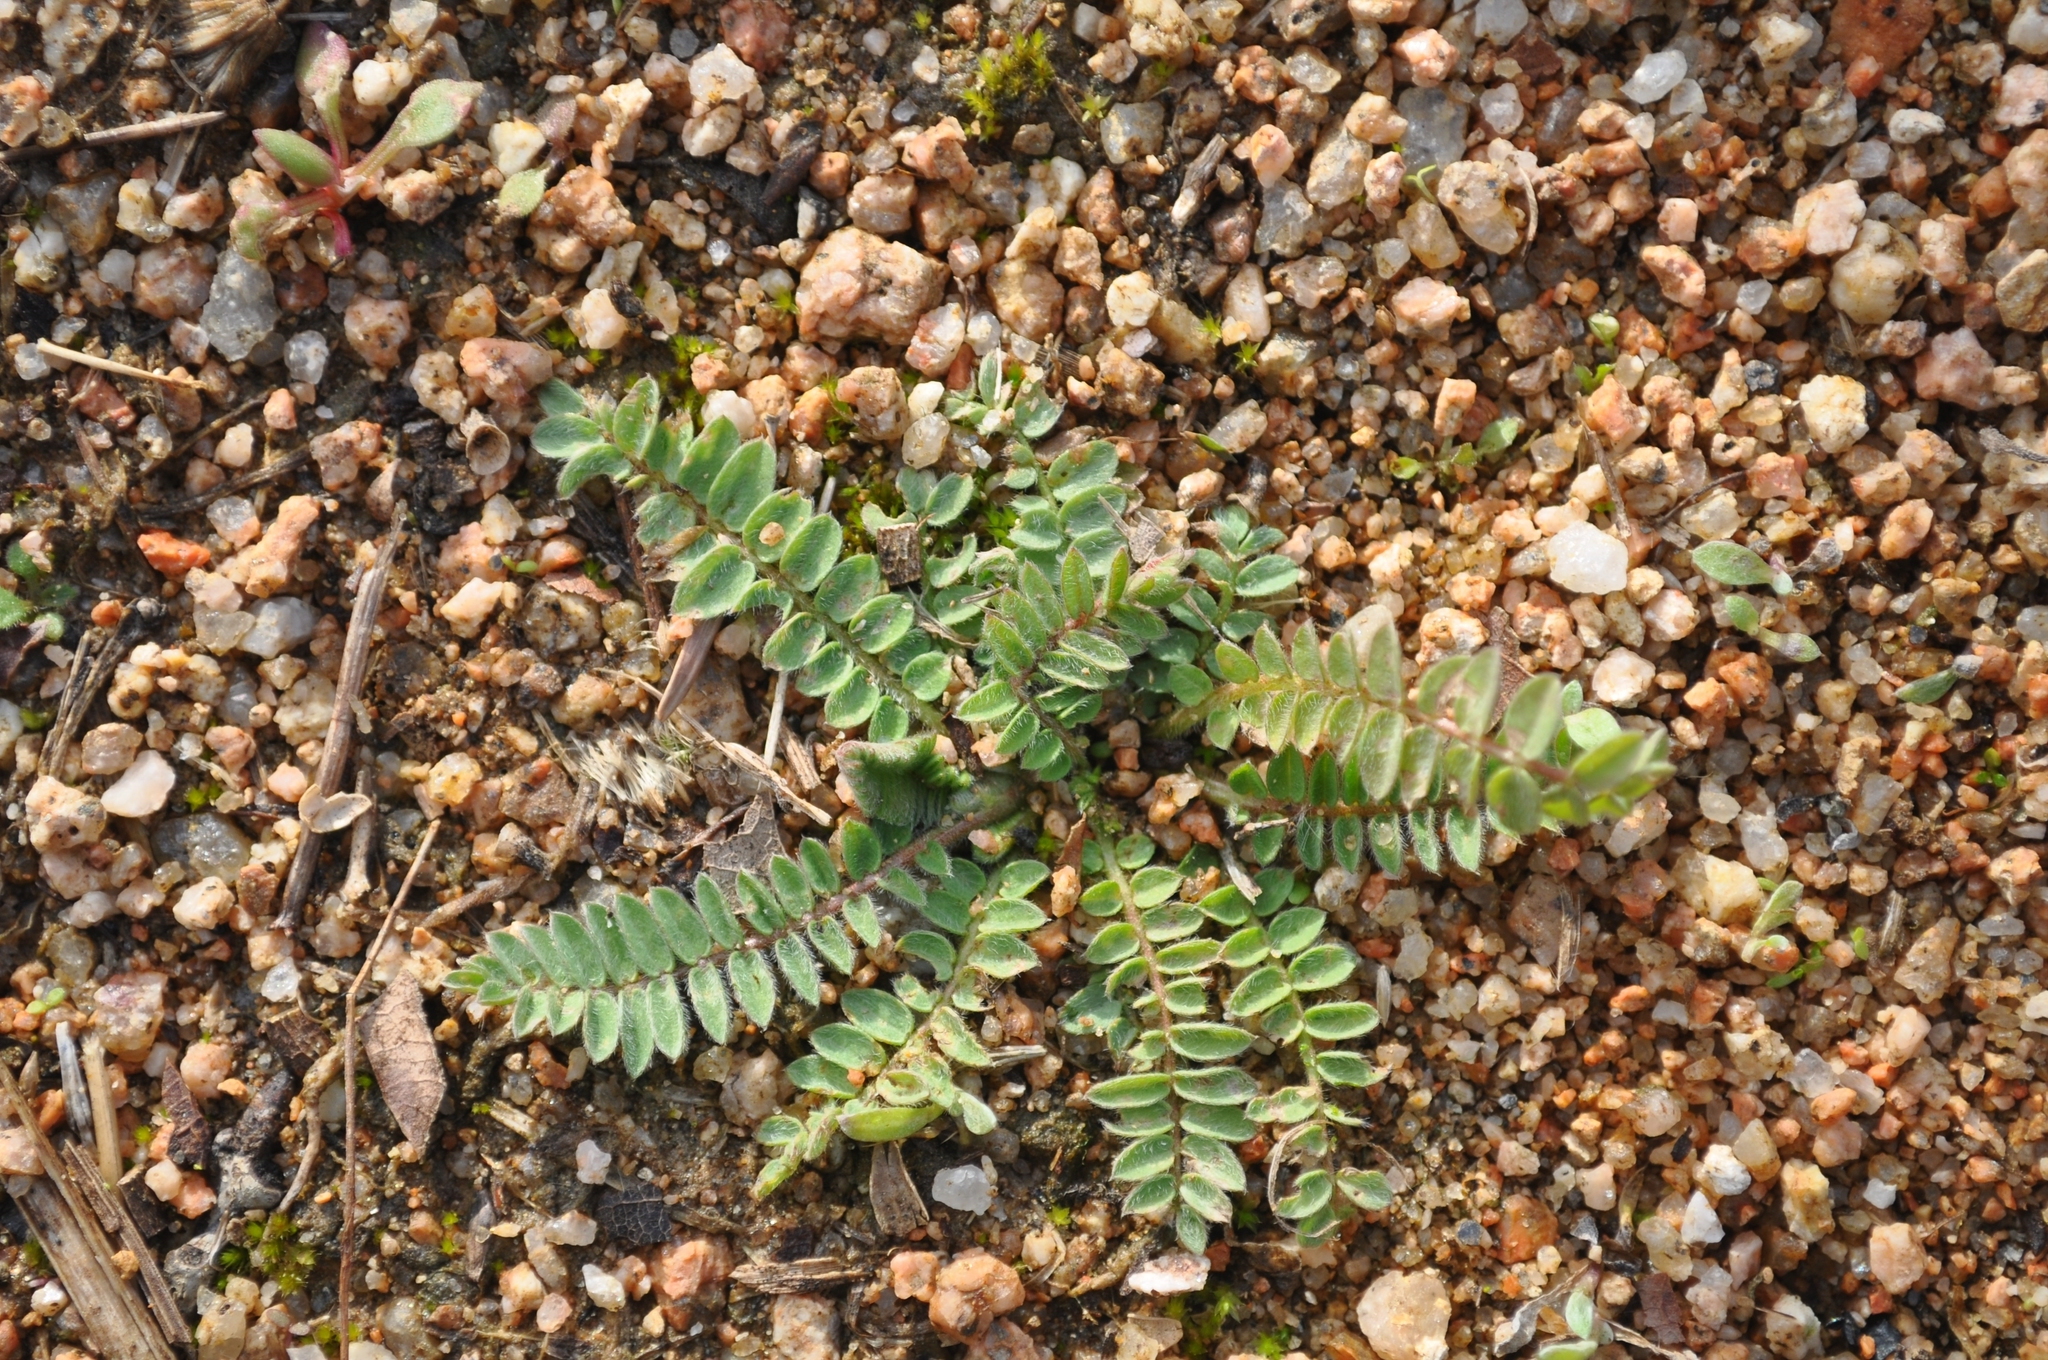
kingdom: Plantae
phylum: Tracheophyta
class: Magnoliopsida
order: Fabales
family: Fabaceae
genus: Ornithopus
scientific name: Ornithopus compressus
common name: Yellow serradella
